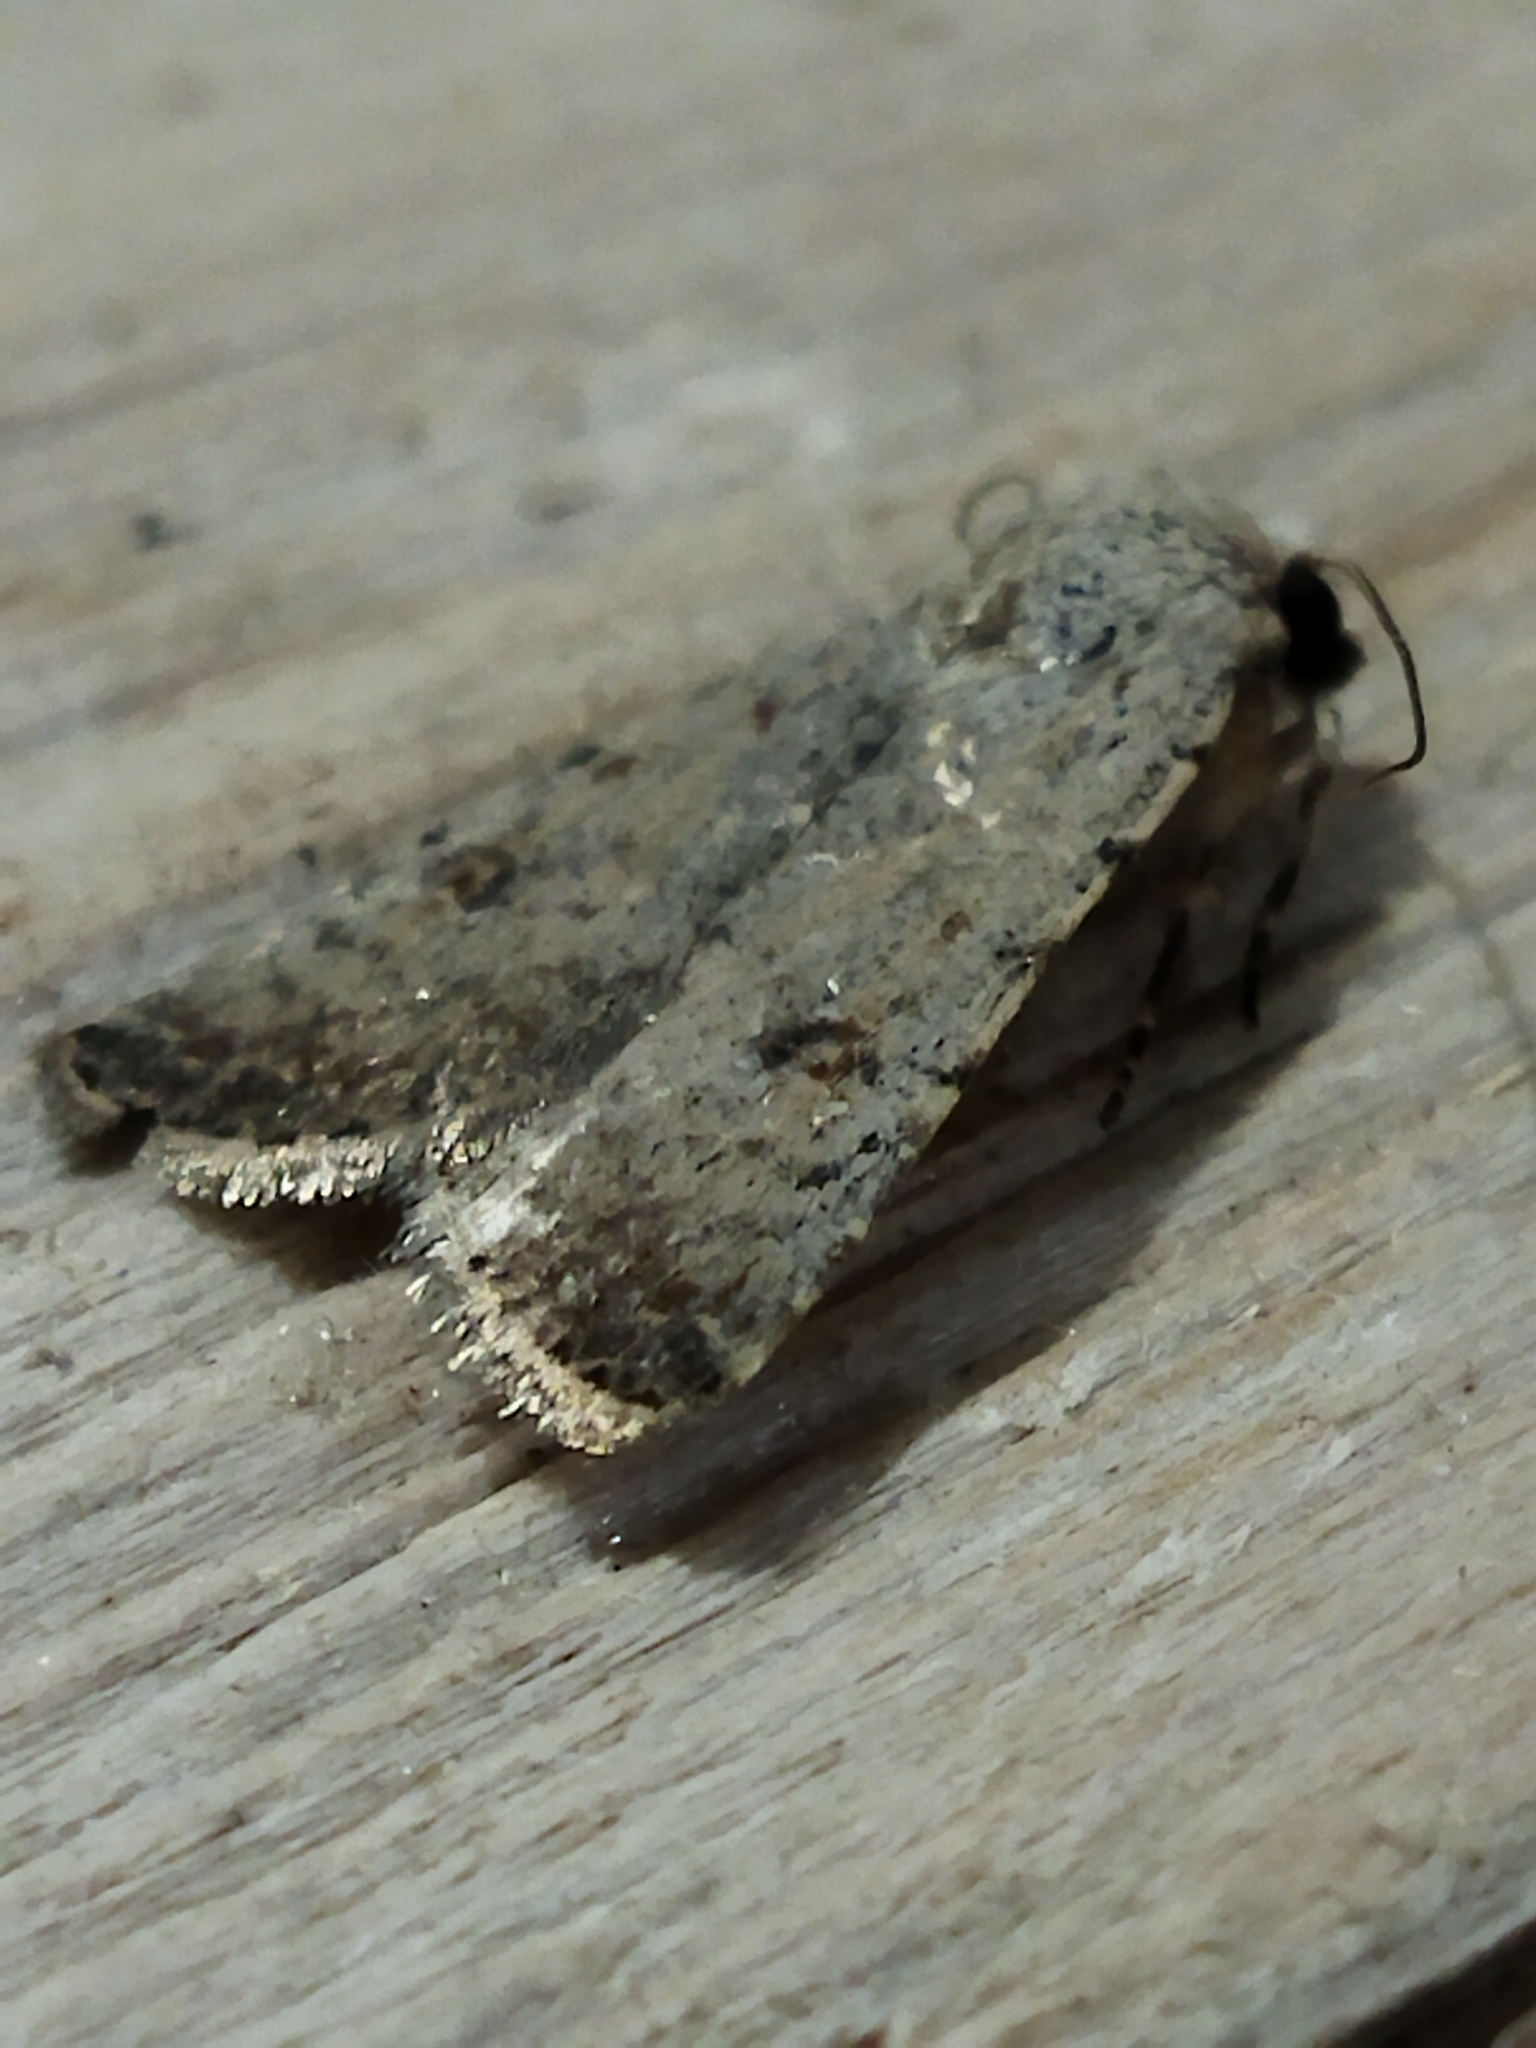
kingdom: Animalia
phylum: Arthropoda
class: Insecta
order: Lepidoptera
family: Noctuidae
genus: Caradrina
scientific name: Caradrina clavipalpis
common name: Pale mottled willow
